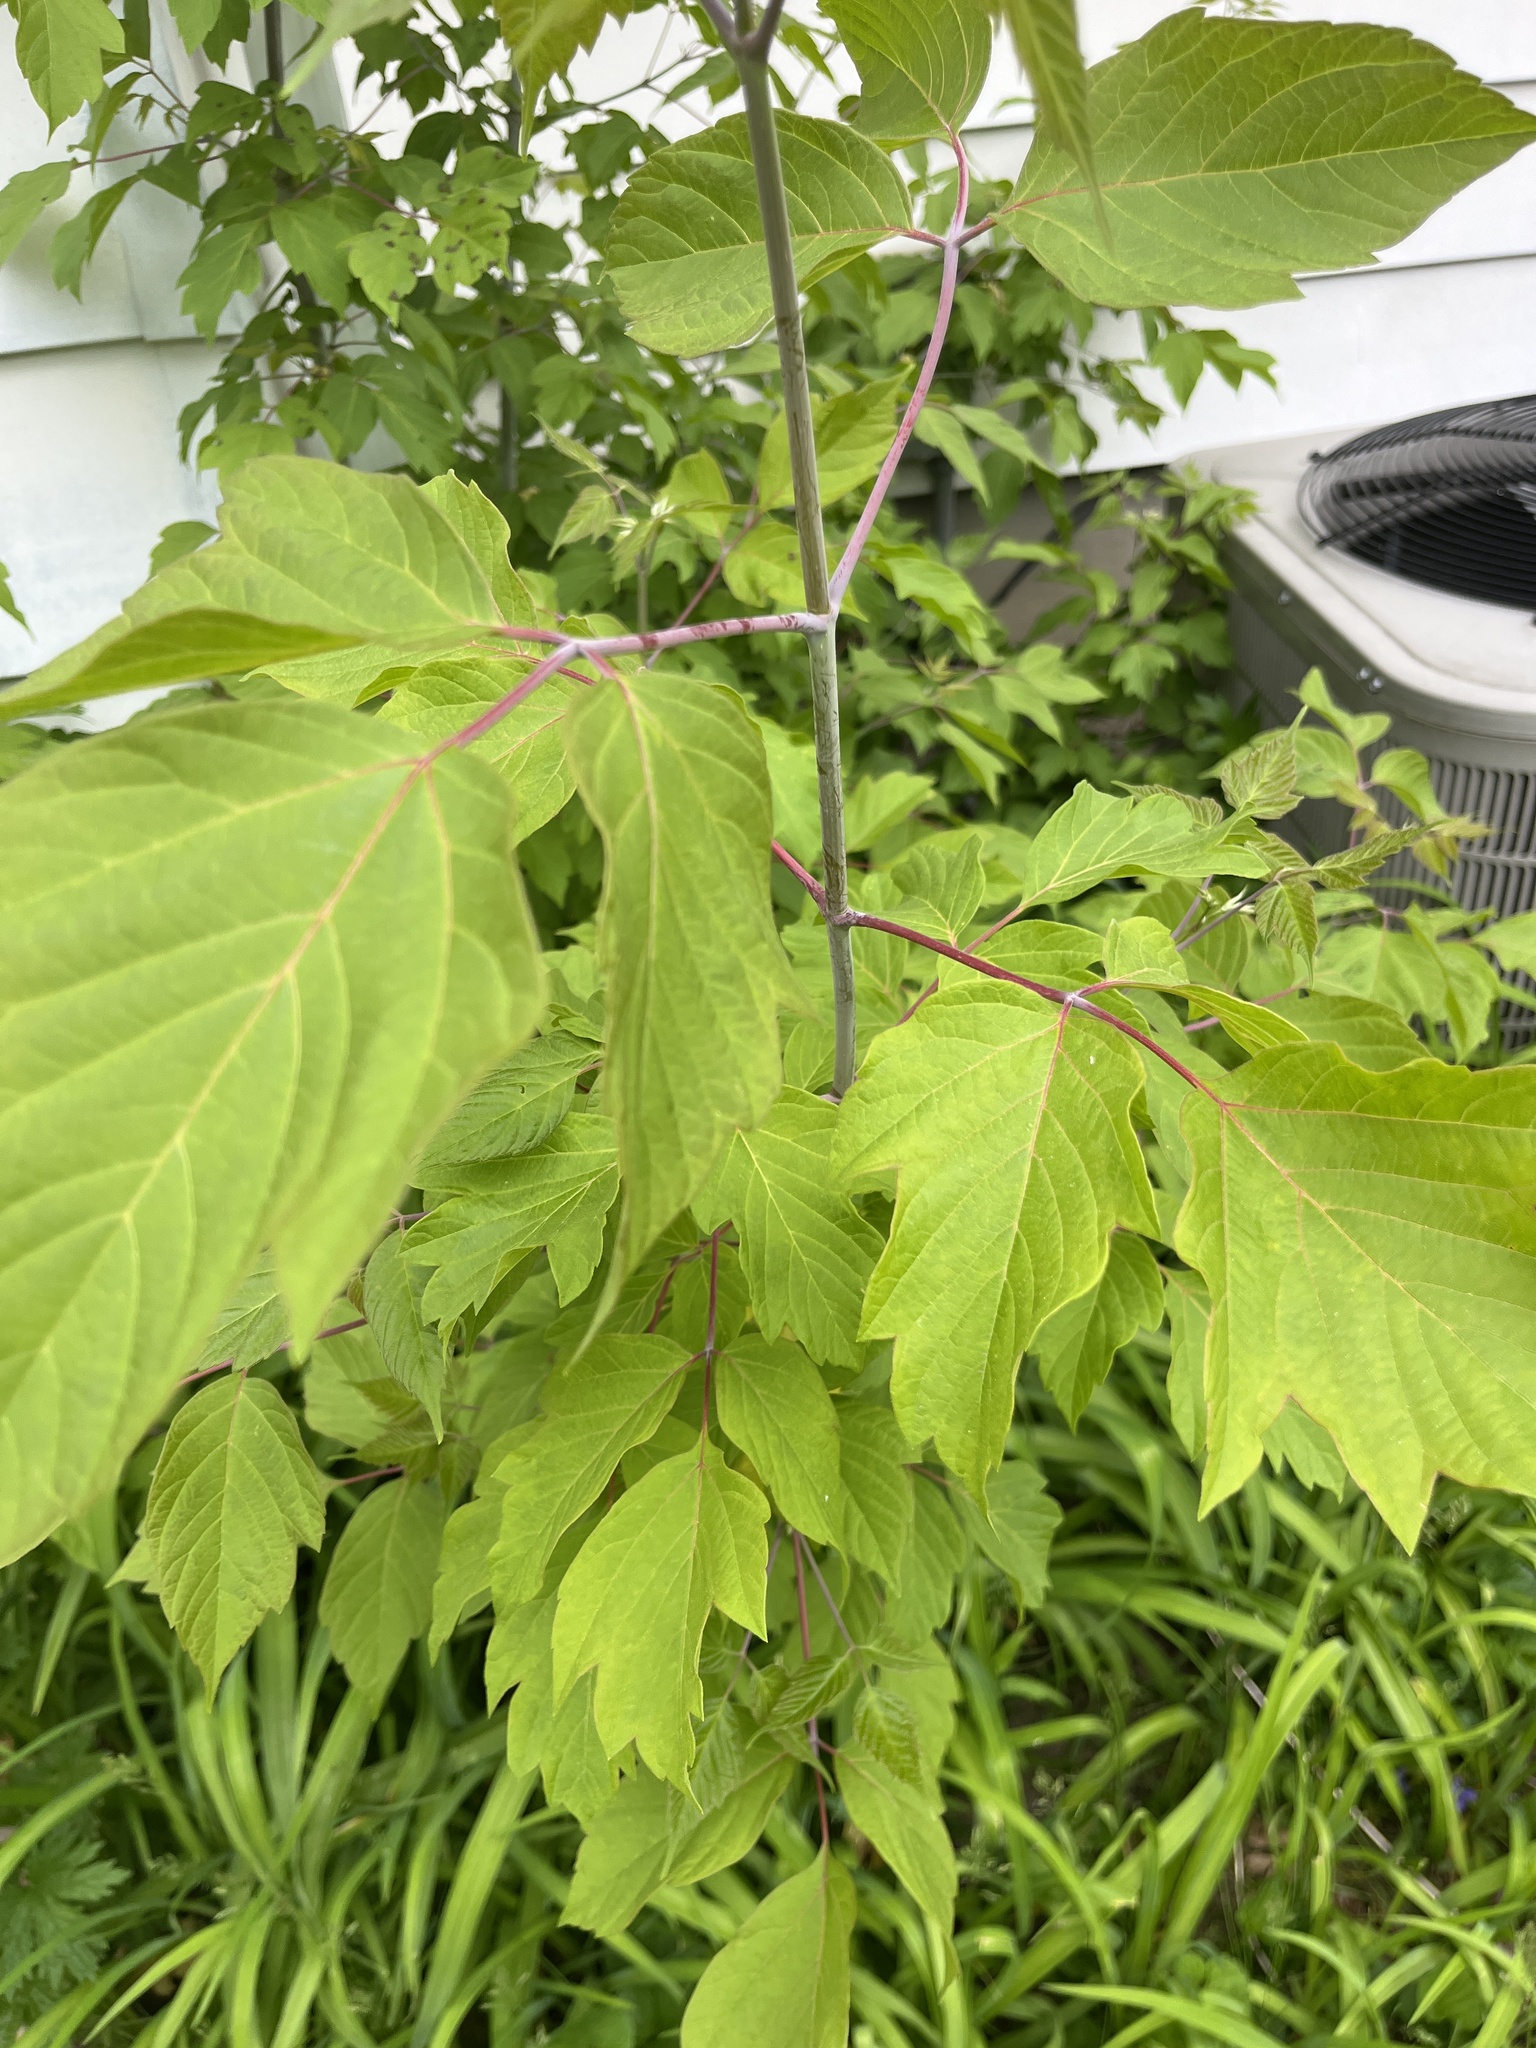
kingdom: Plantae
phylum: Tracheophyta
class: Magnoliopsida
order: Sapindales
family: Sapindaceae
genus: Acer
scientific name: Acer negundo
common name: Ashleaf maple
